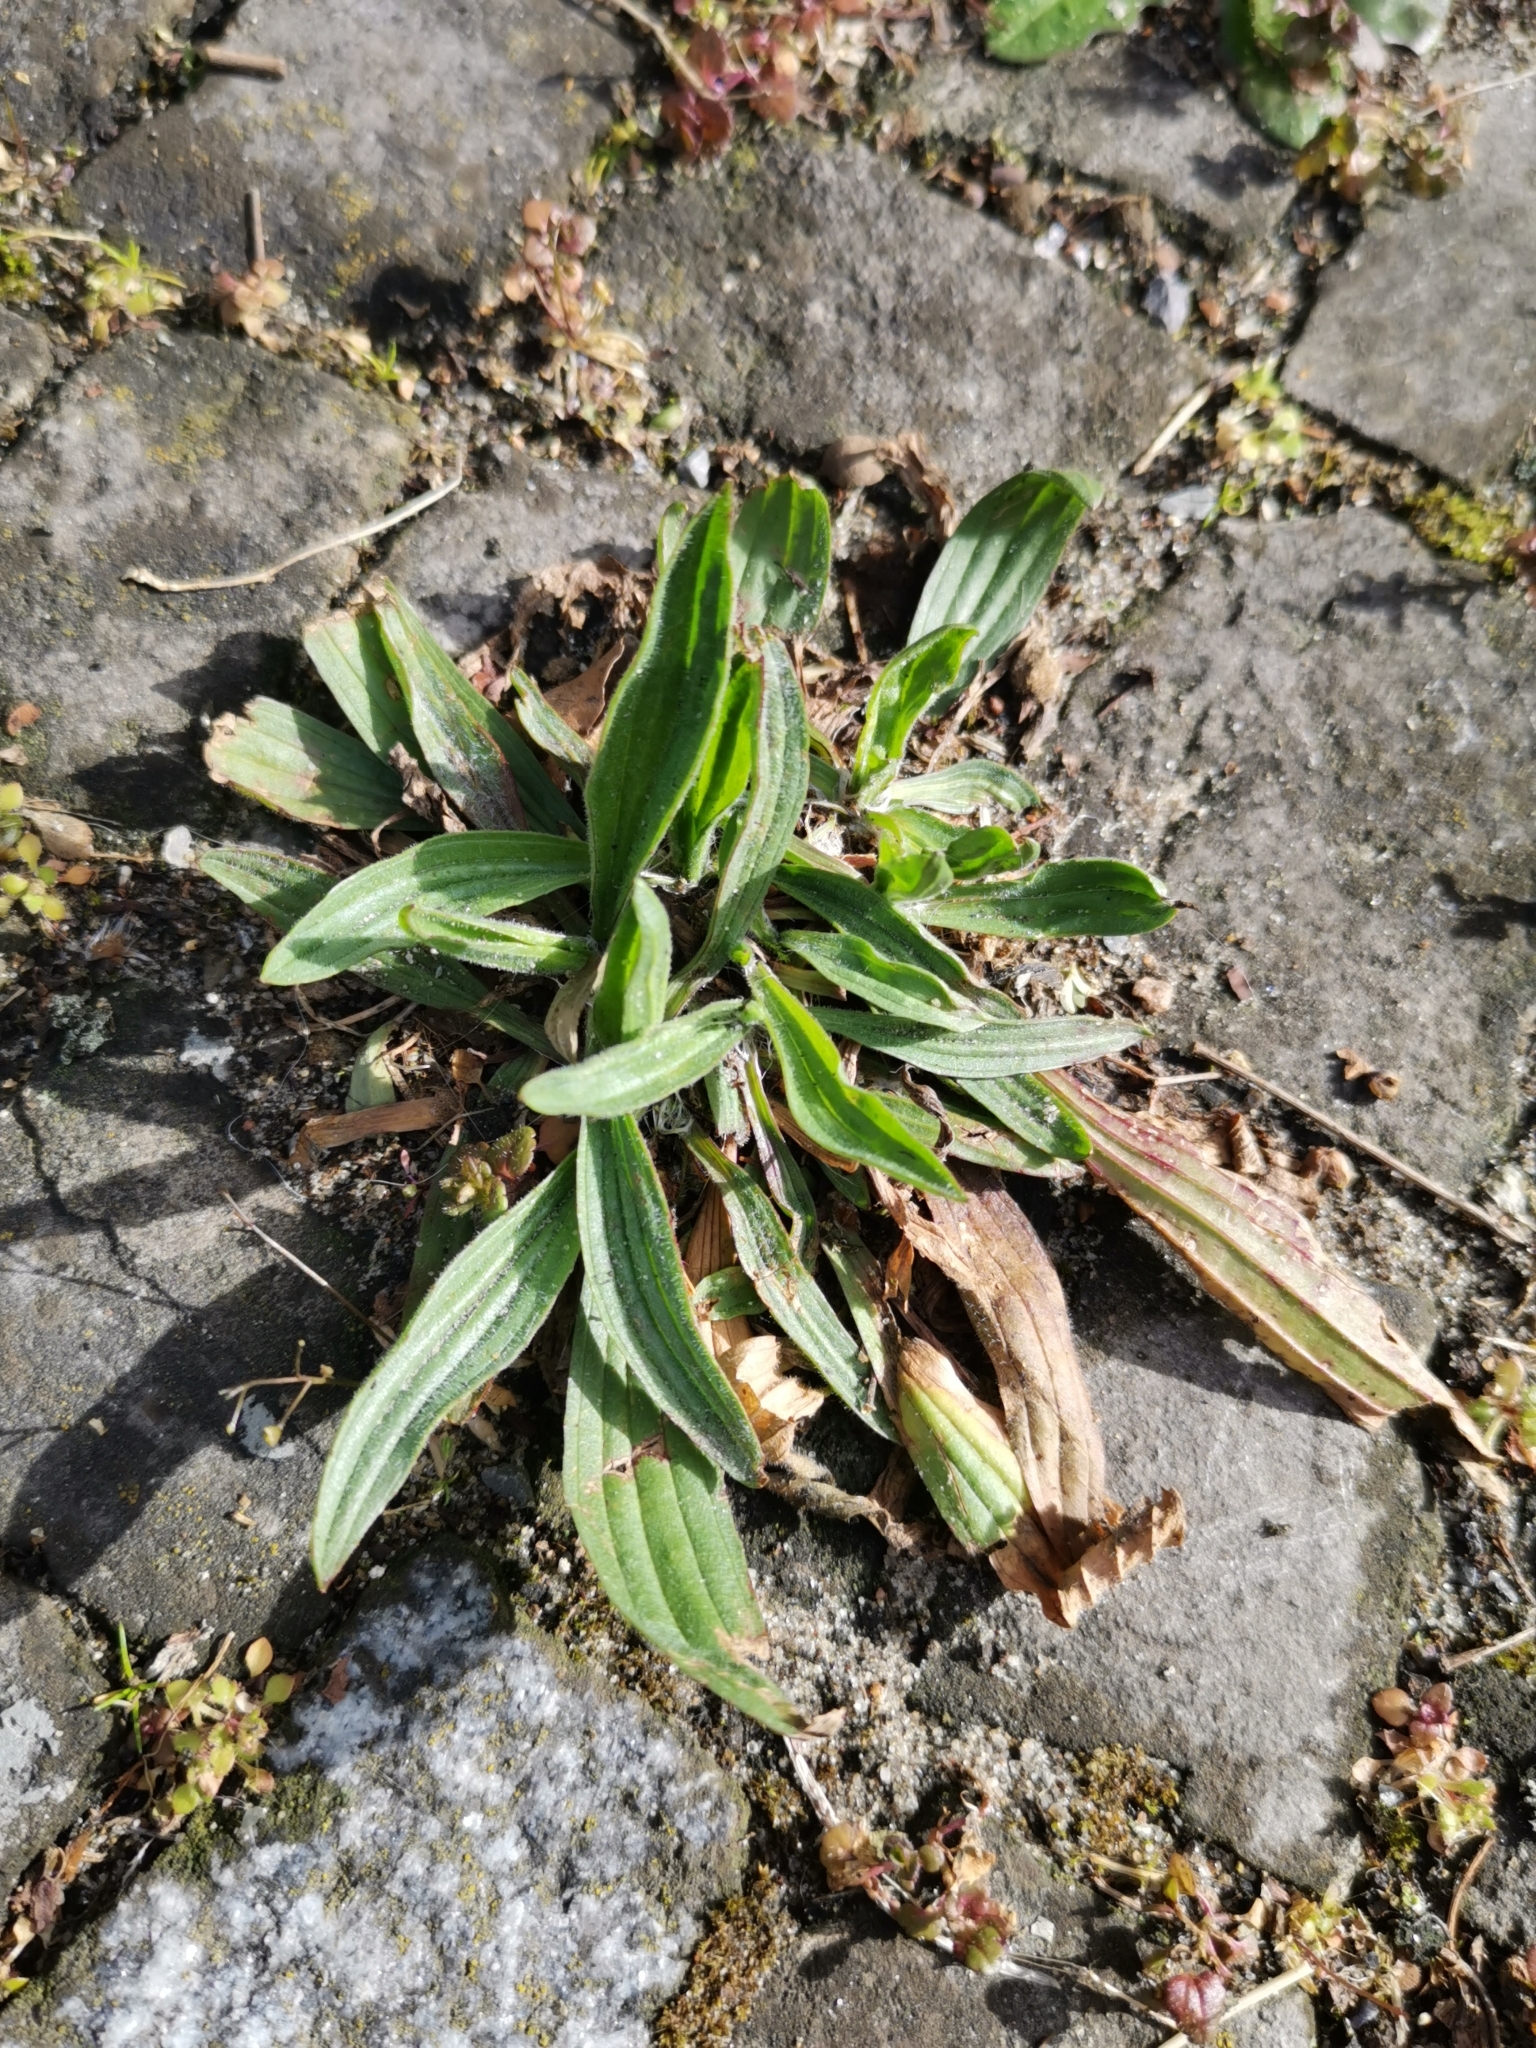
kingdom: Plantae
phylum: Tracheophyta
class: Magnoliopsida
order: Lamiales
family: Plantaginaceae
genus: Plantago
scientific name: Plantago lanceolata
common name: Ribwort plantain
